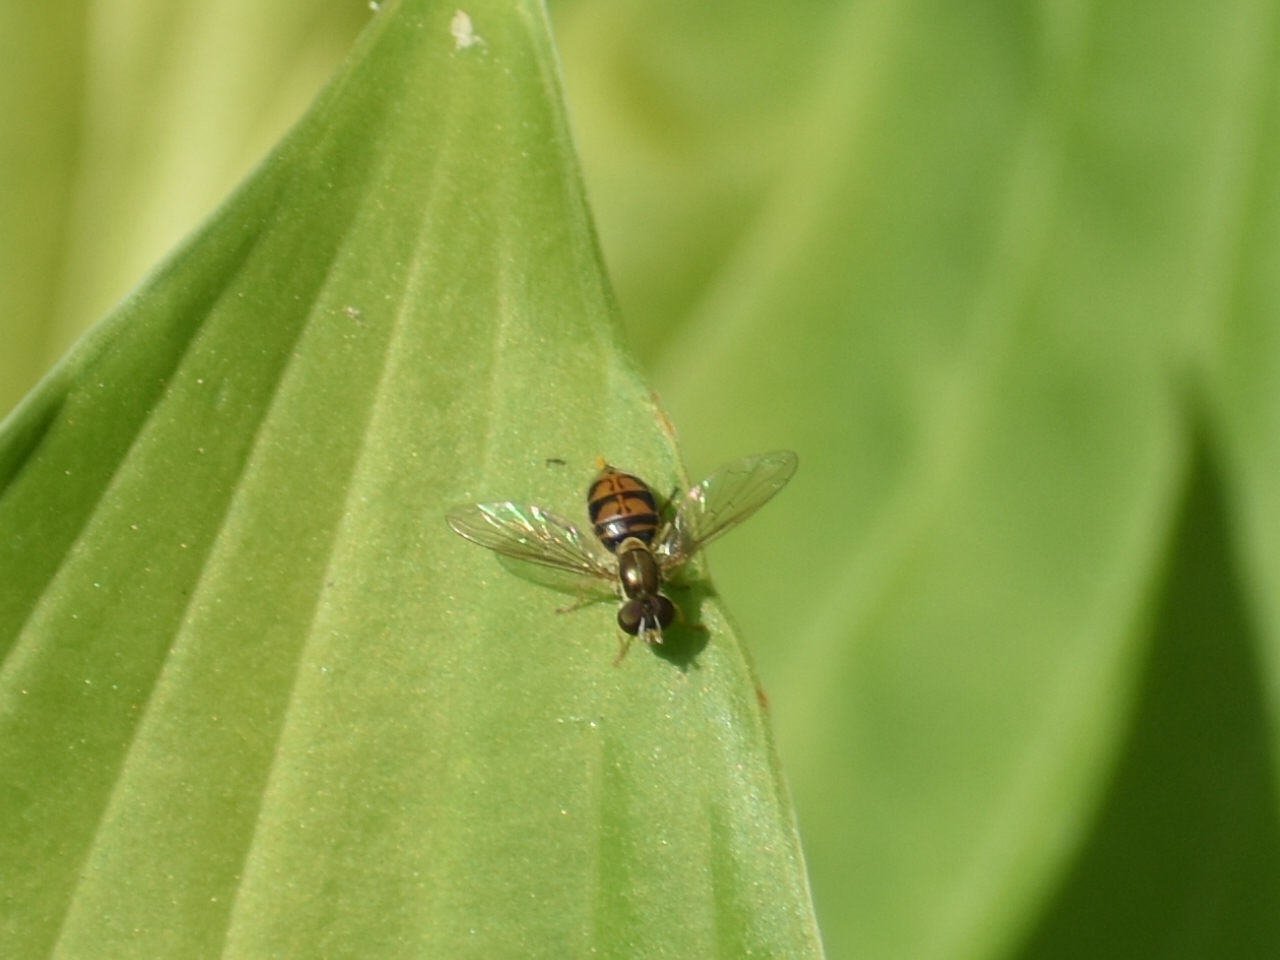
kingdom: Animalia
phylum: Arthropoda
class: Insecta
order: Diptera
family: Syrphidae
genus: Toxomerus
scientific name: Toxomerus marginatus
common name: Syrphid fly
